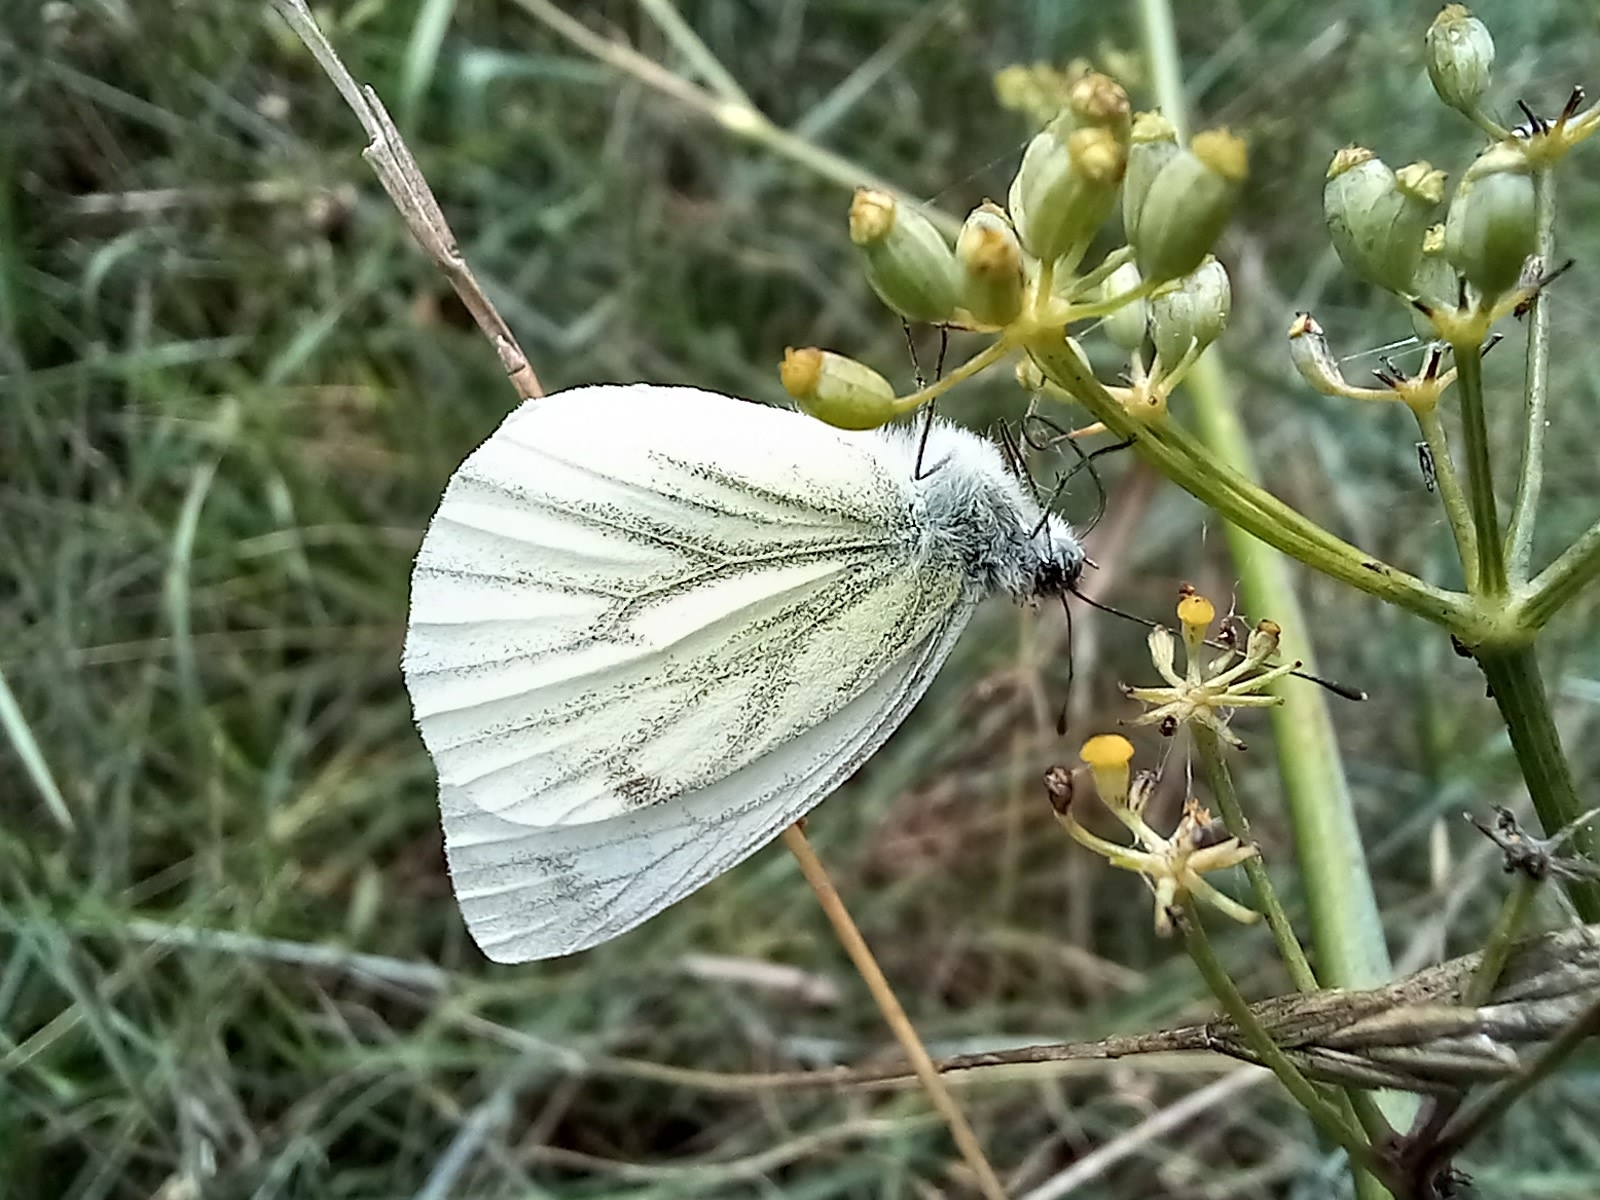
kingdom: Animalia
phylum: Arthropoda
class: Insecta
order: Lepidoptera
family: Pieridae
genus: Pieris
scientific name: Pieris napi
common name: Green-veined white
